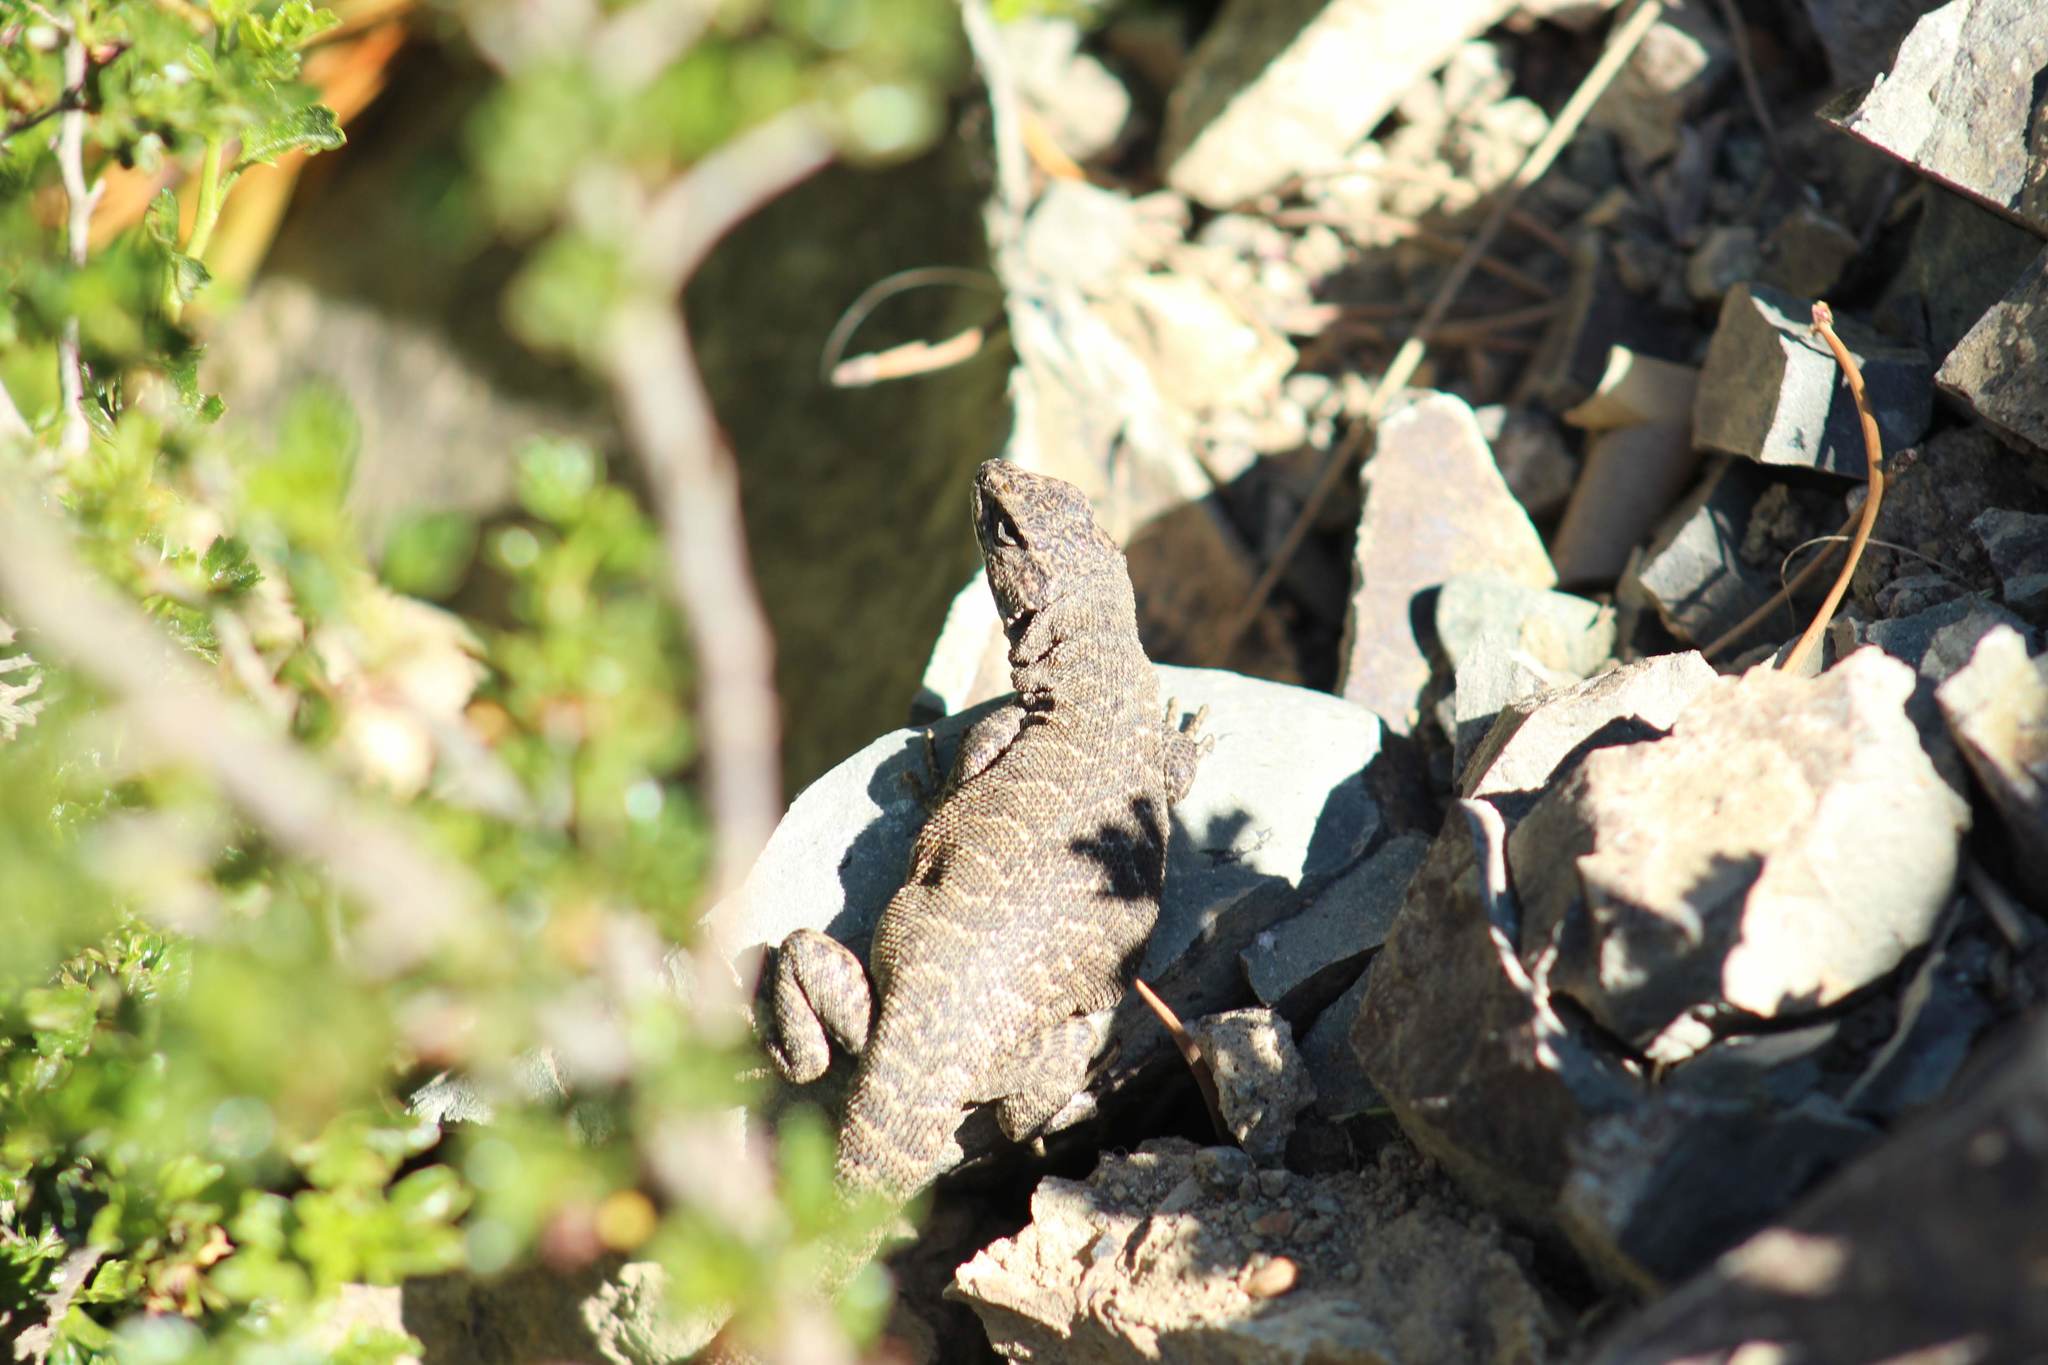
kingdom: Animalia
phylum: Chordata
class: Squamata
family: Liolaemidae
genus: Liolaemus
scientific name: Liolaemus elongatus
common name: Elongate tree iguana
